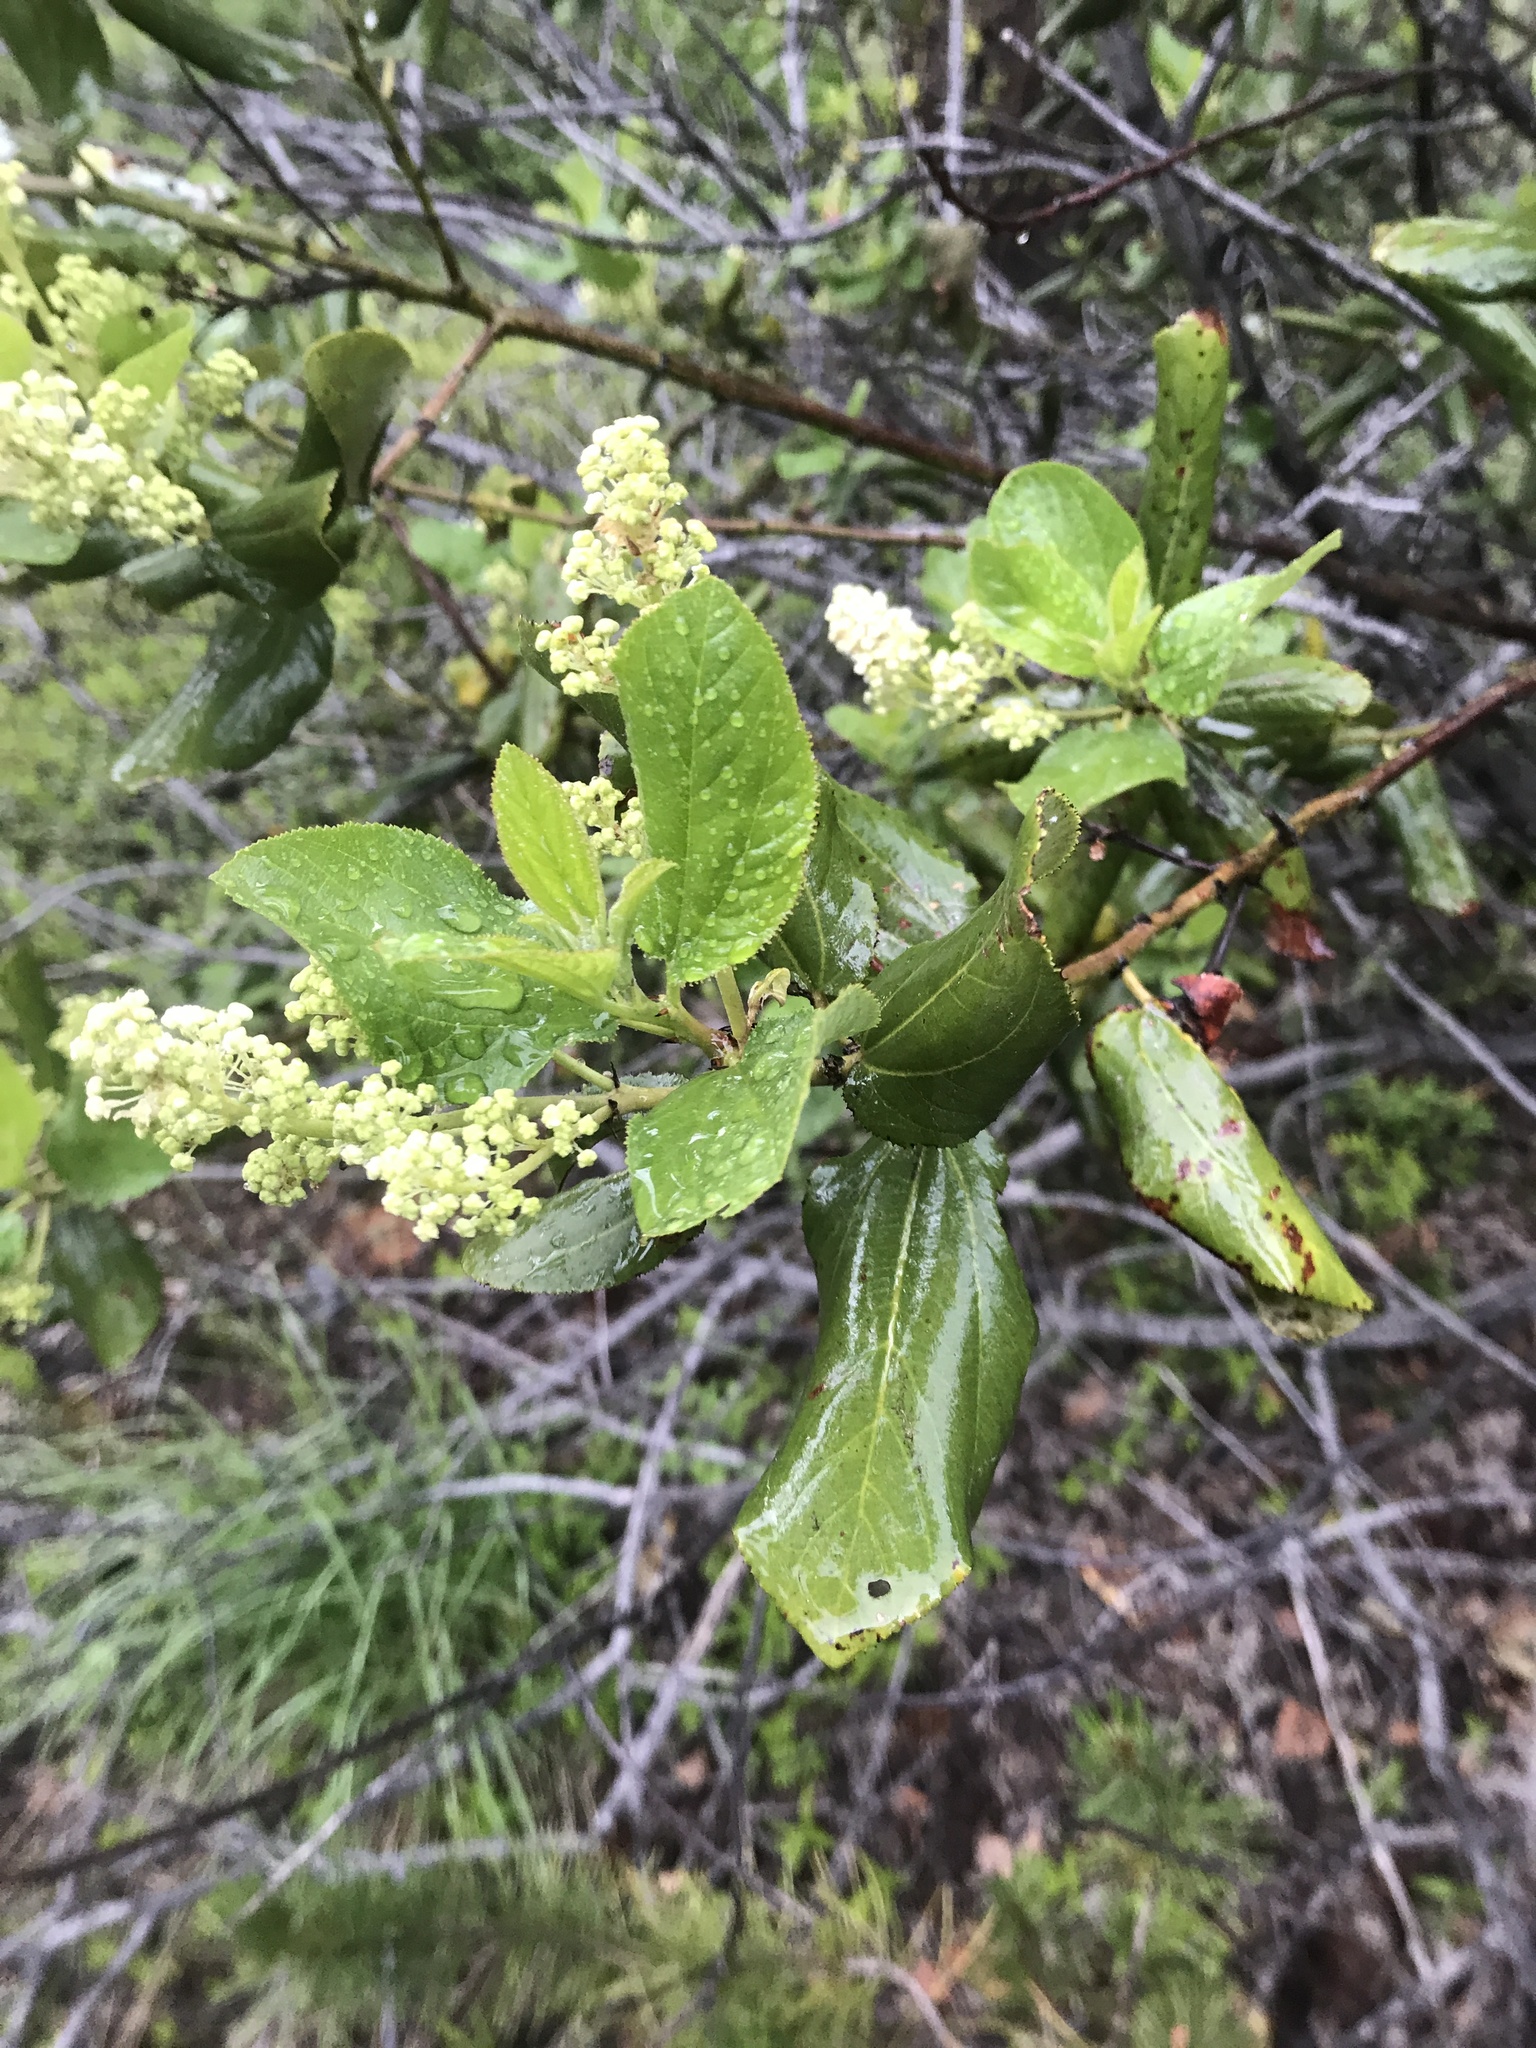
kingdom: Plantae
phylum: Tracheophyta
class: Magnoliopsida
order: Rosales
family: Rhamnaceae
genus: Ceanothus
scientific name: Ceanothus velutinus
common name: Snowbrush
